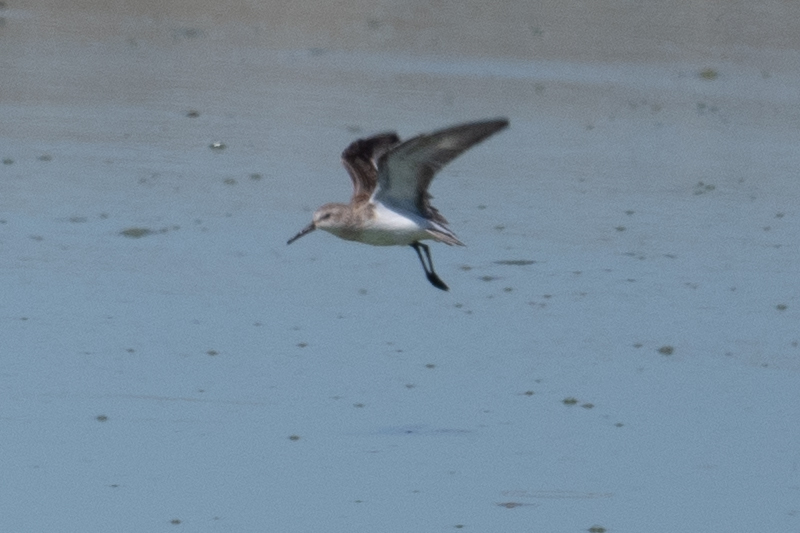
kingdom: Animalia
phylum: Chordata
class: Aves
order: Charadriiformes
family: Scolopacidae
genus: Calidris
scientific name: Calidris mauri
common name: Western sandpiper
